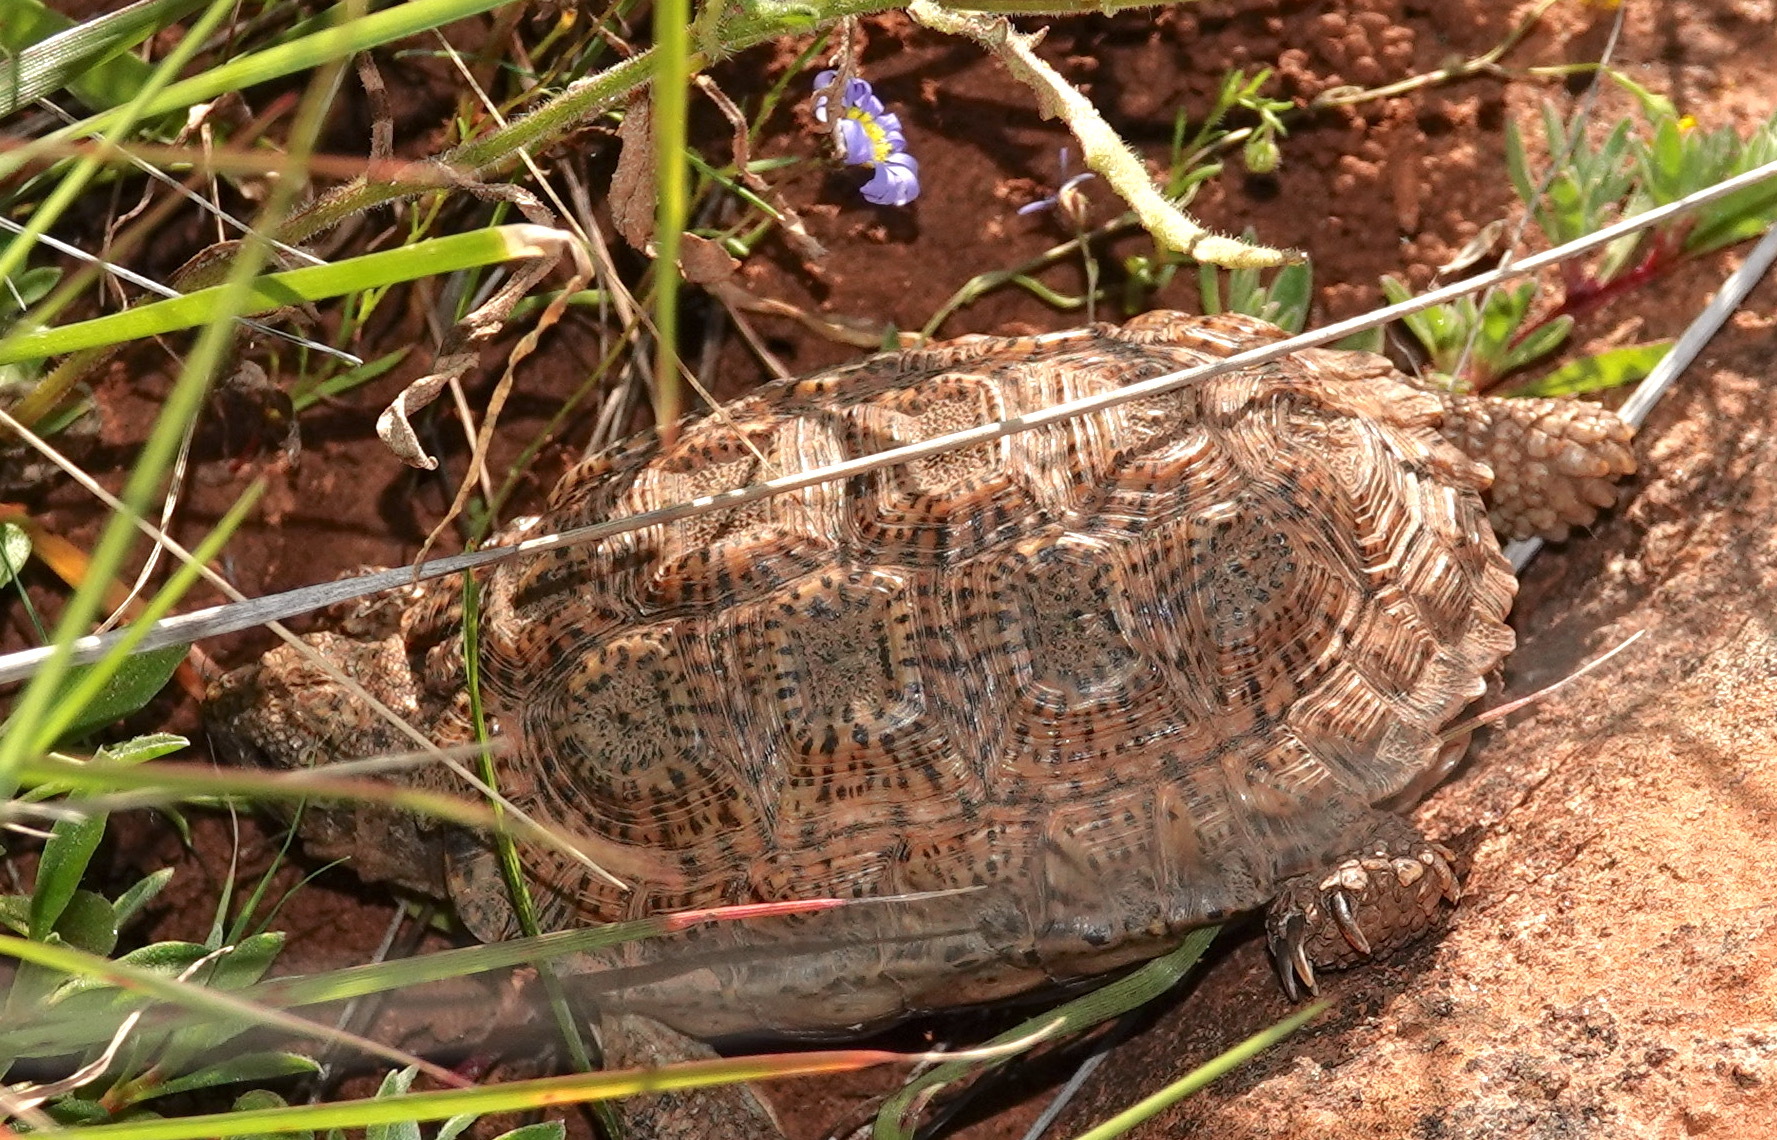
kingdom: Animalia
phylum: Chordata
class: Testudines
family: Testudinidae
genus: Chersobius
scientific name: Chersobius signatus
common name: Speckled cape tortoise
